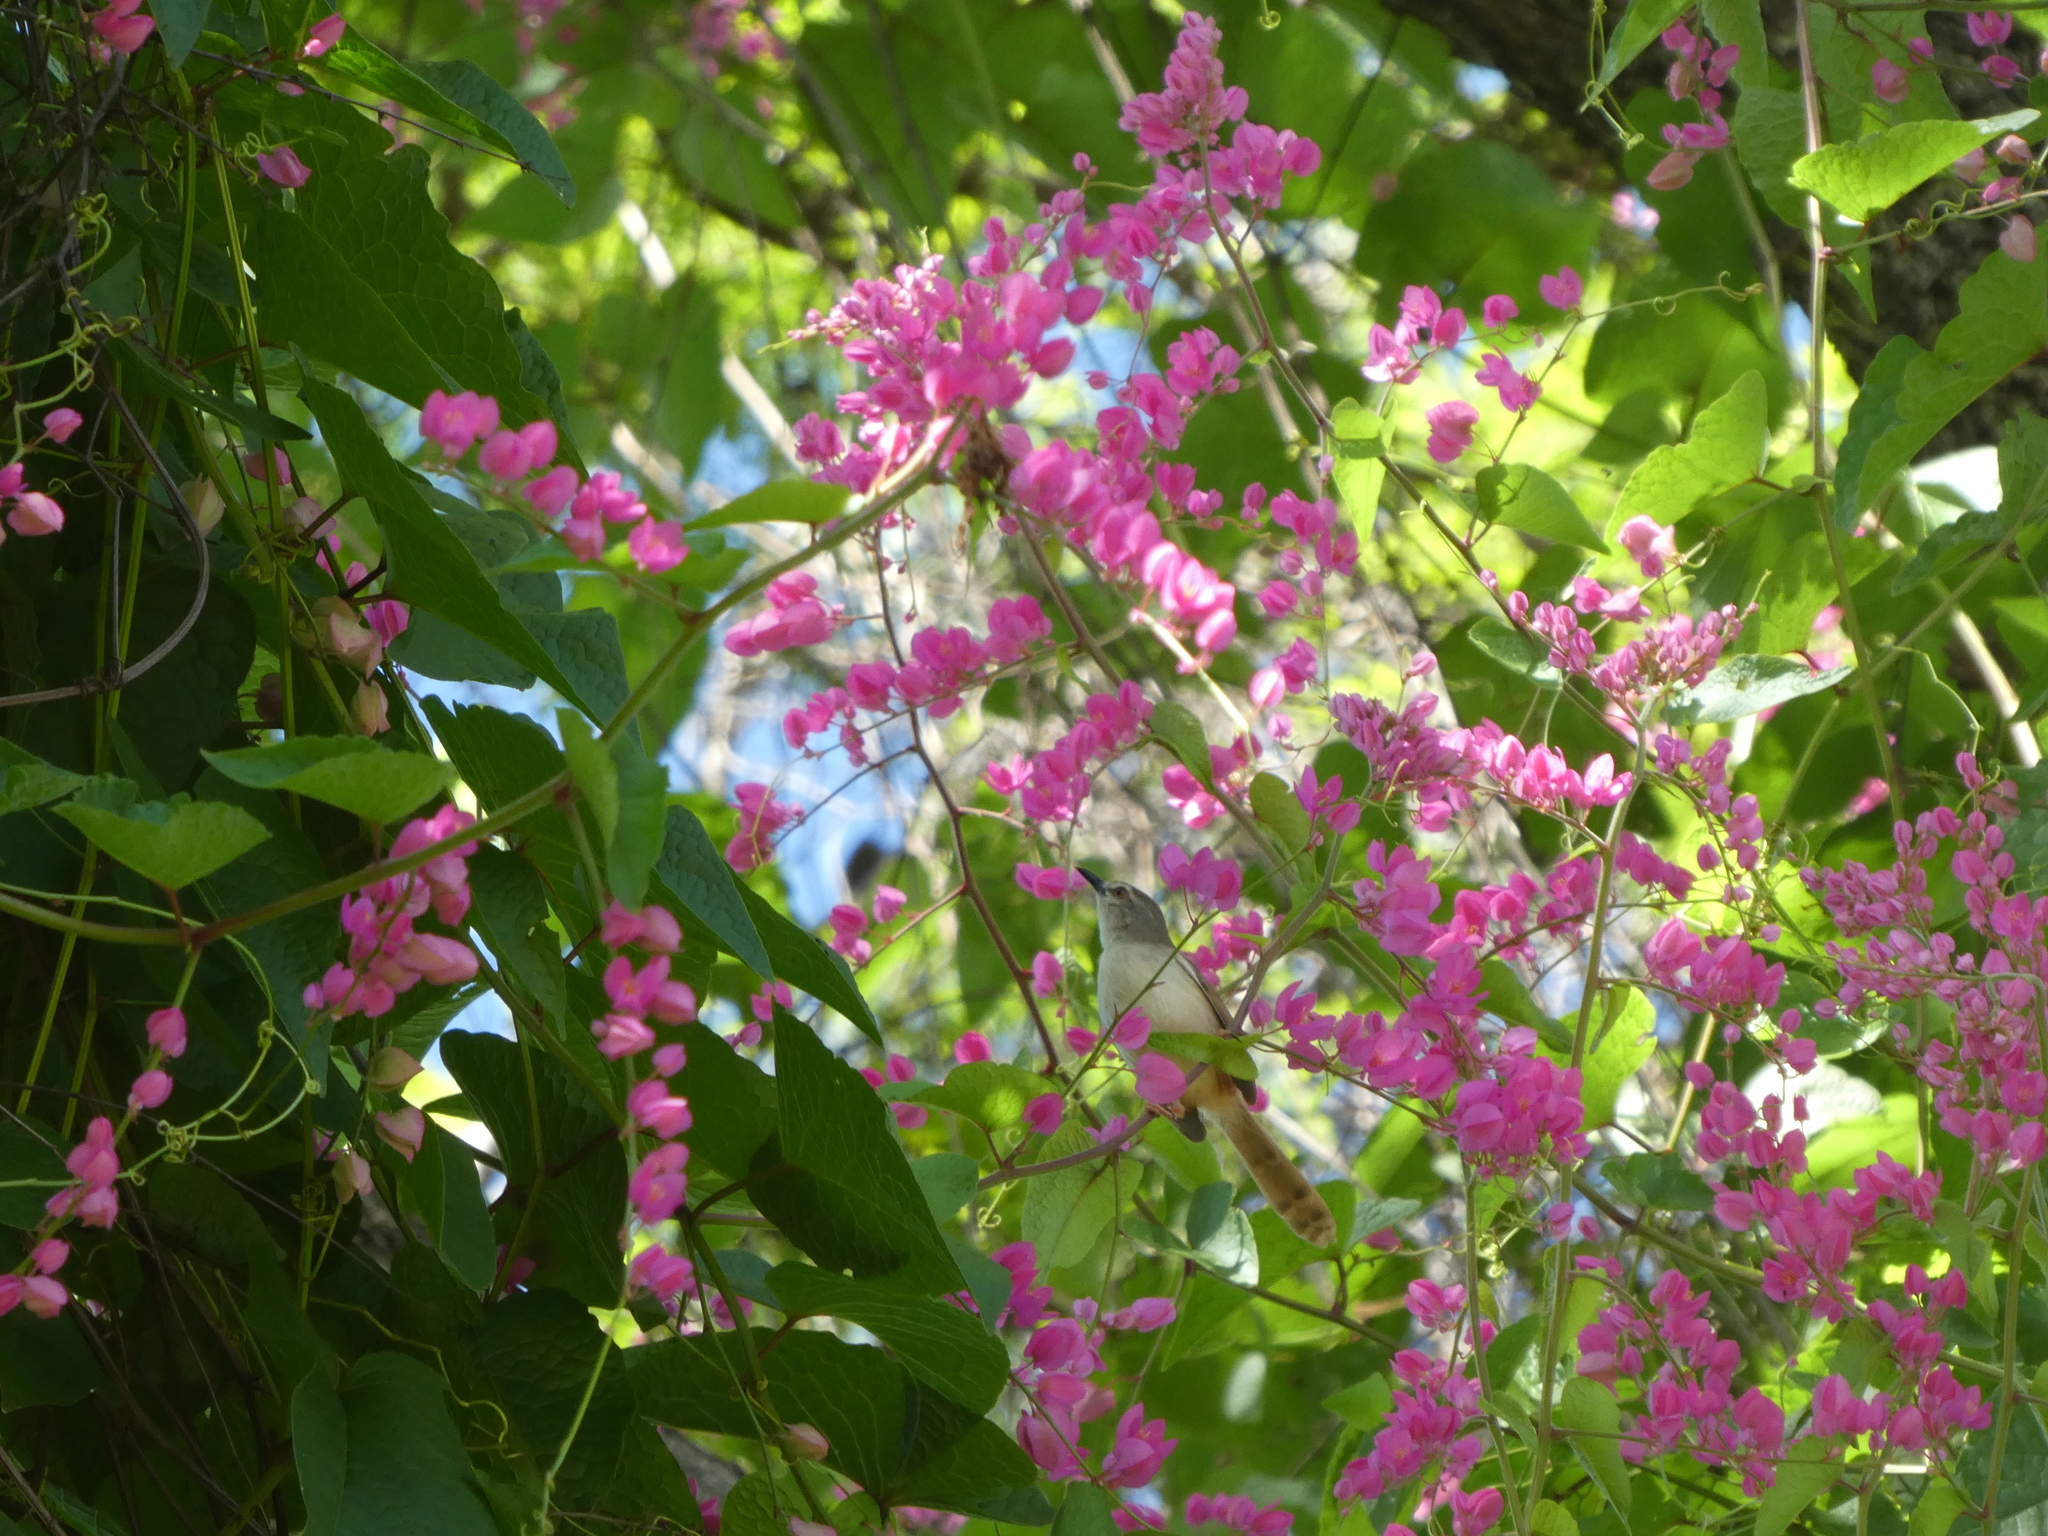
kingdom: Animalia
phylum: Chordata
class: Aves
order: Passeriformes
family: Cisticolidae
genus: Prinia
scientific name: Prinia subflava
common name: Tawny-flanked prinia
